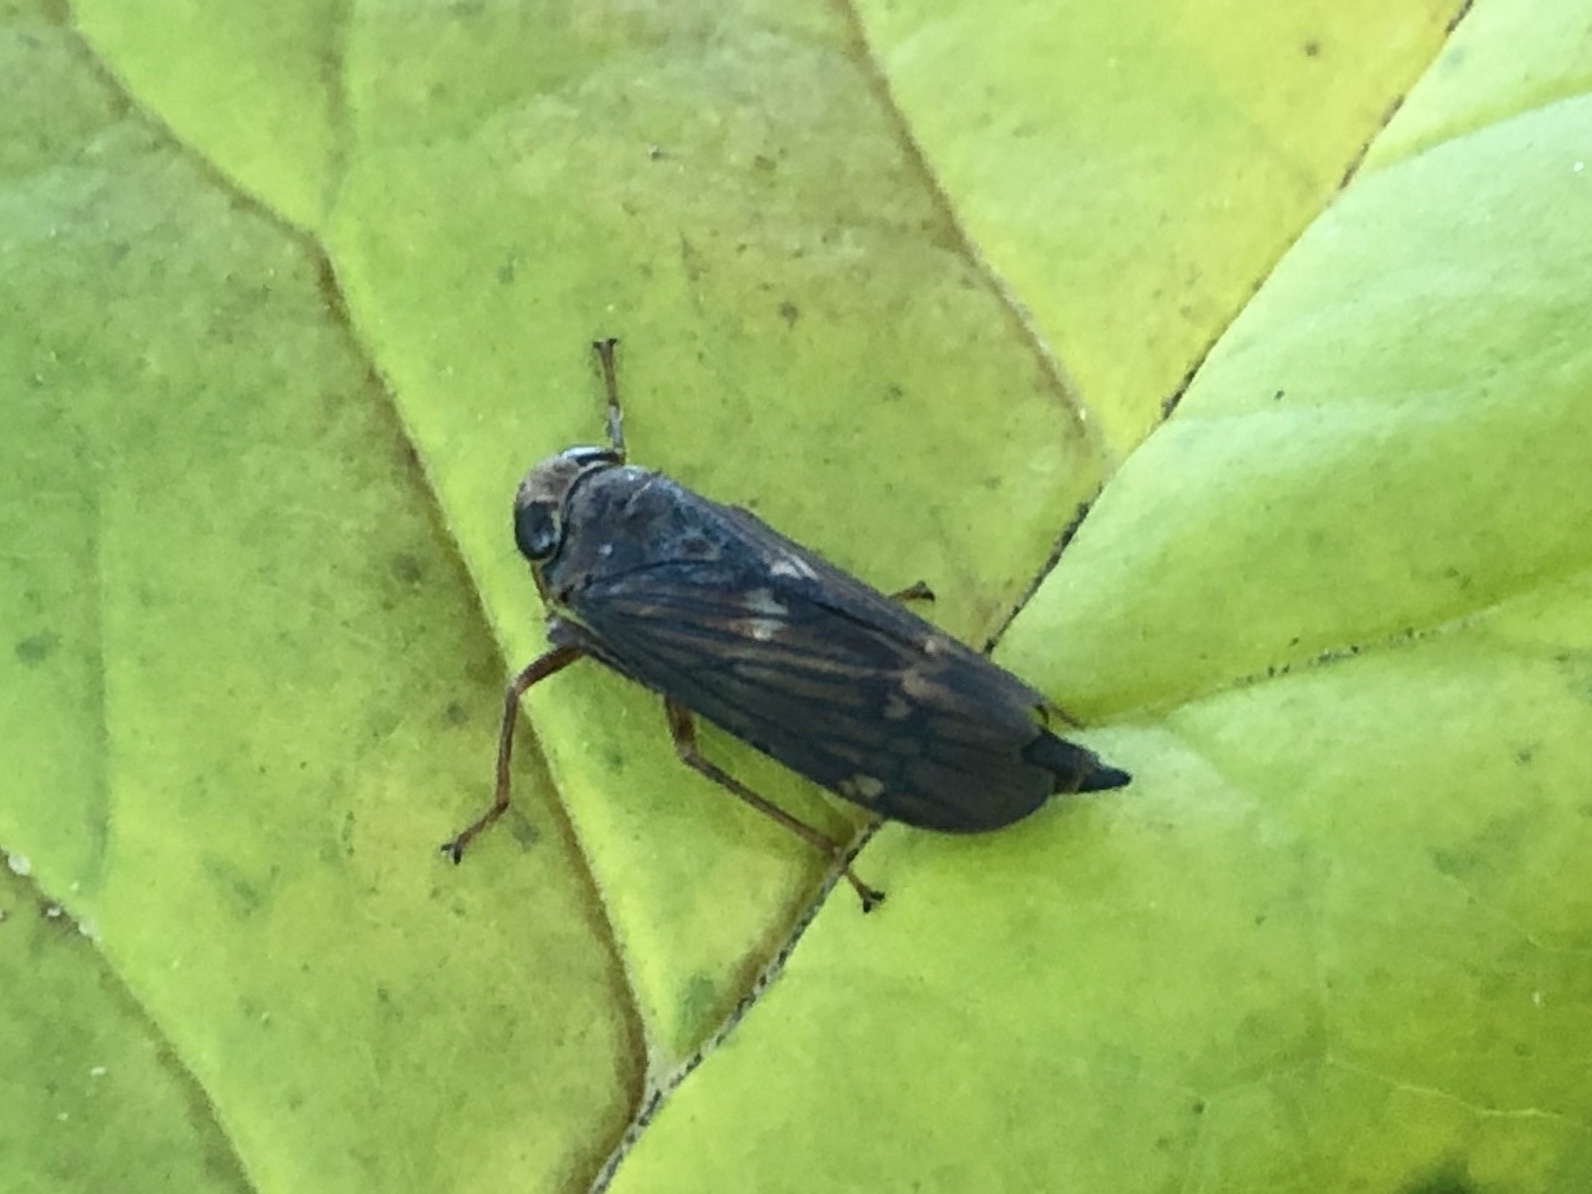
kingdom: Animalia
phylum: Arthropoda
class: Insecta
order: Hemiptera
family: Cicadellidae
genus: Jikradia
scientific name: Jikradia olitoria
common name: Coppery leafhopper
